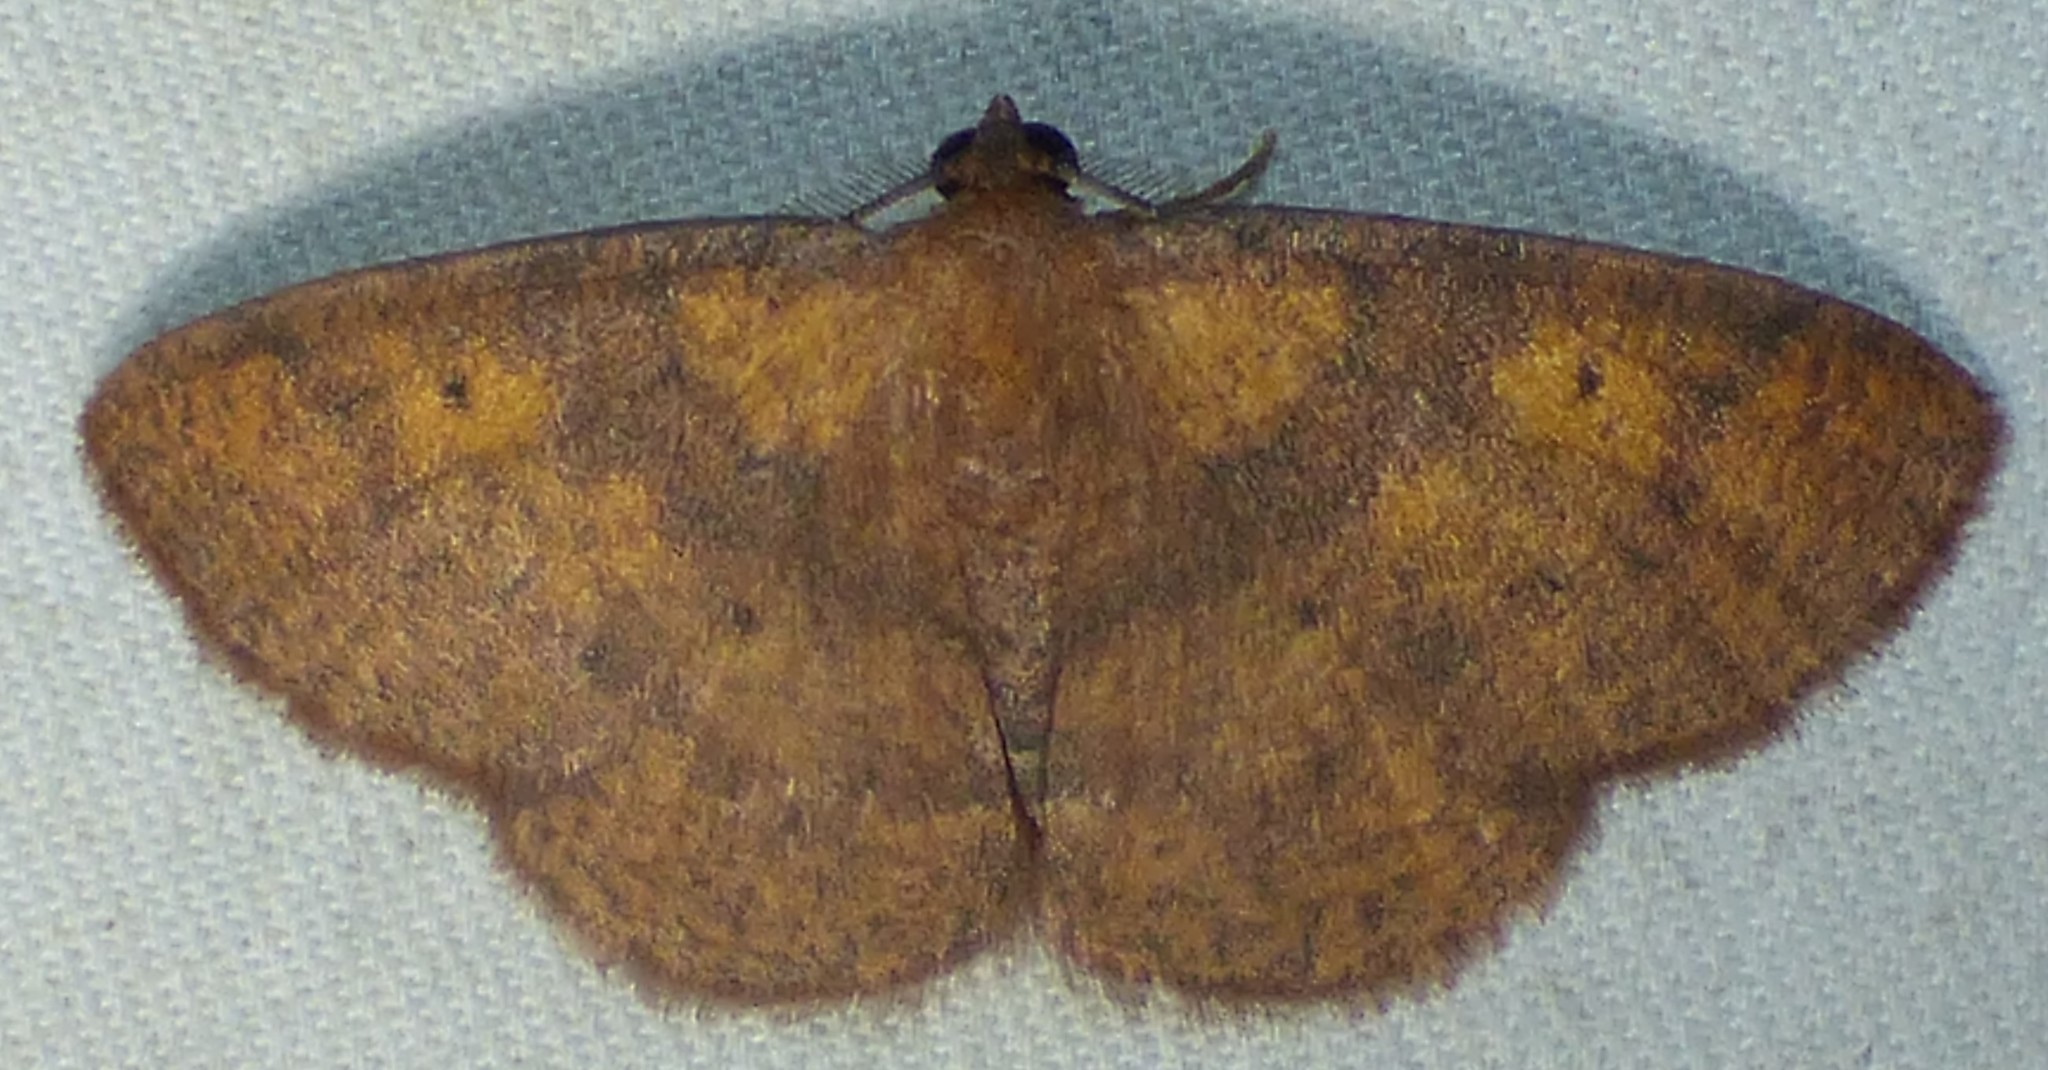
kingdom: Animalia
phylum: Arthropoda
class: Insecta
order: Lepidoptera
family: Geometridae
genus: Ilexia
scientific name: Ilexia intractata
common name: Black-dotted ruddy moth
